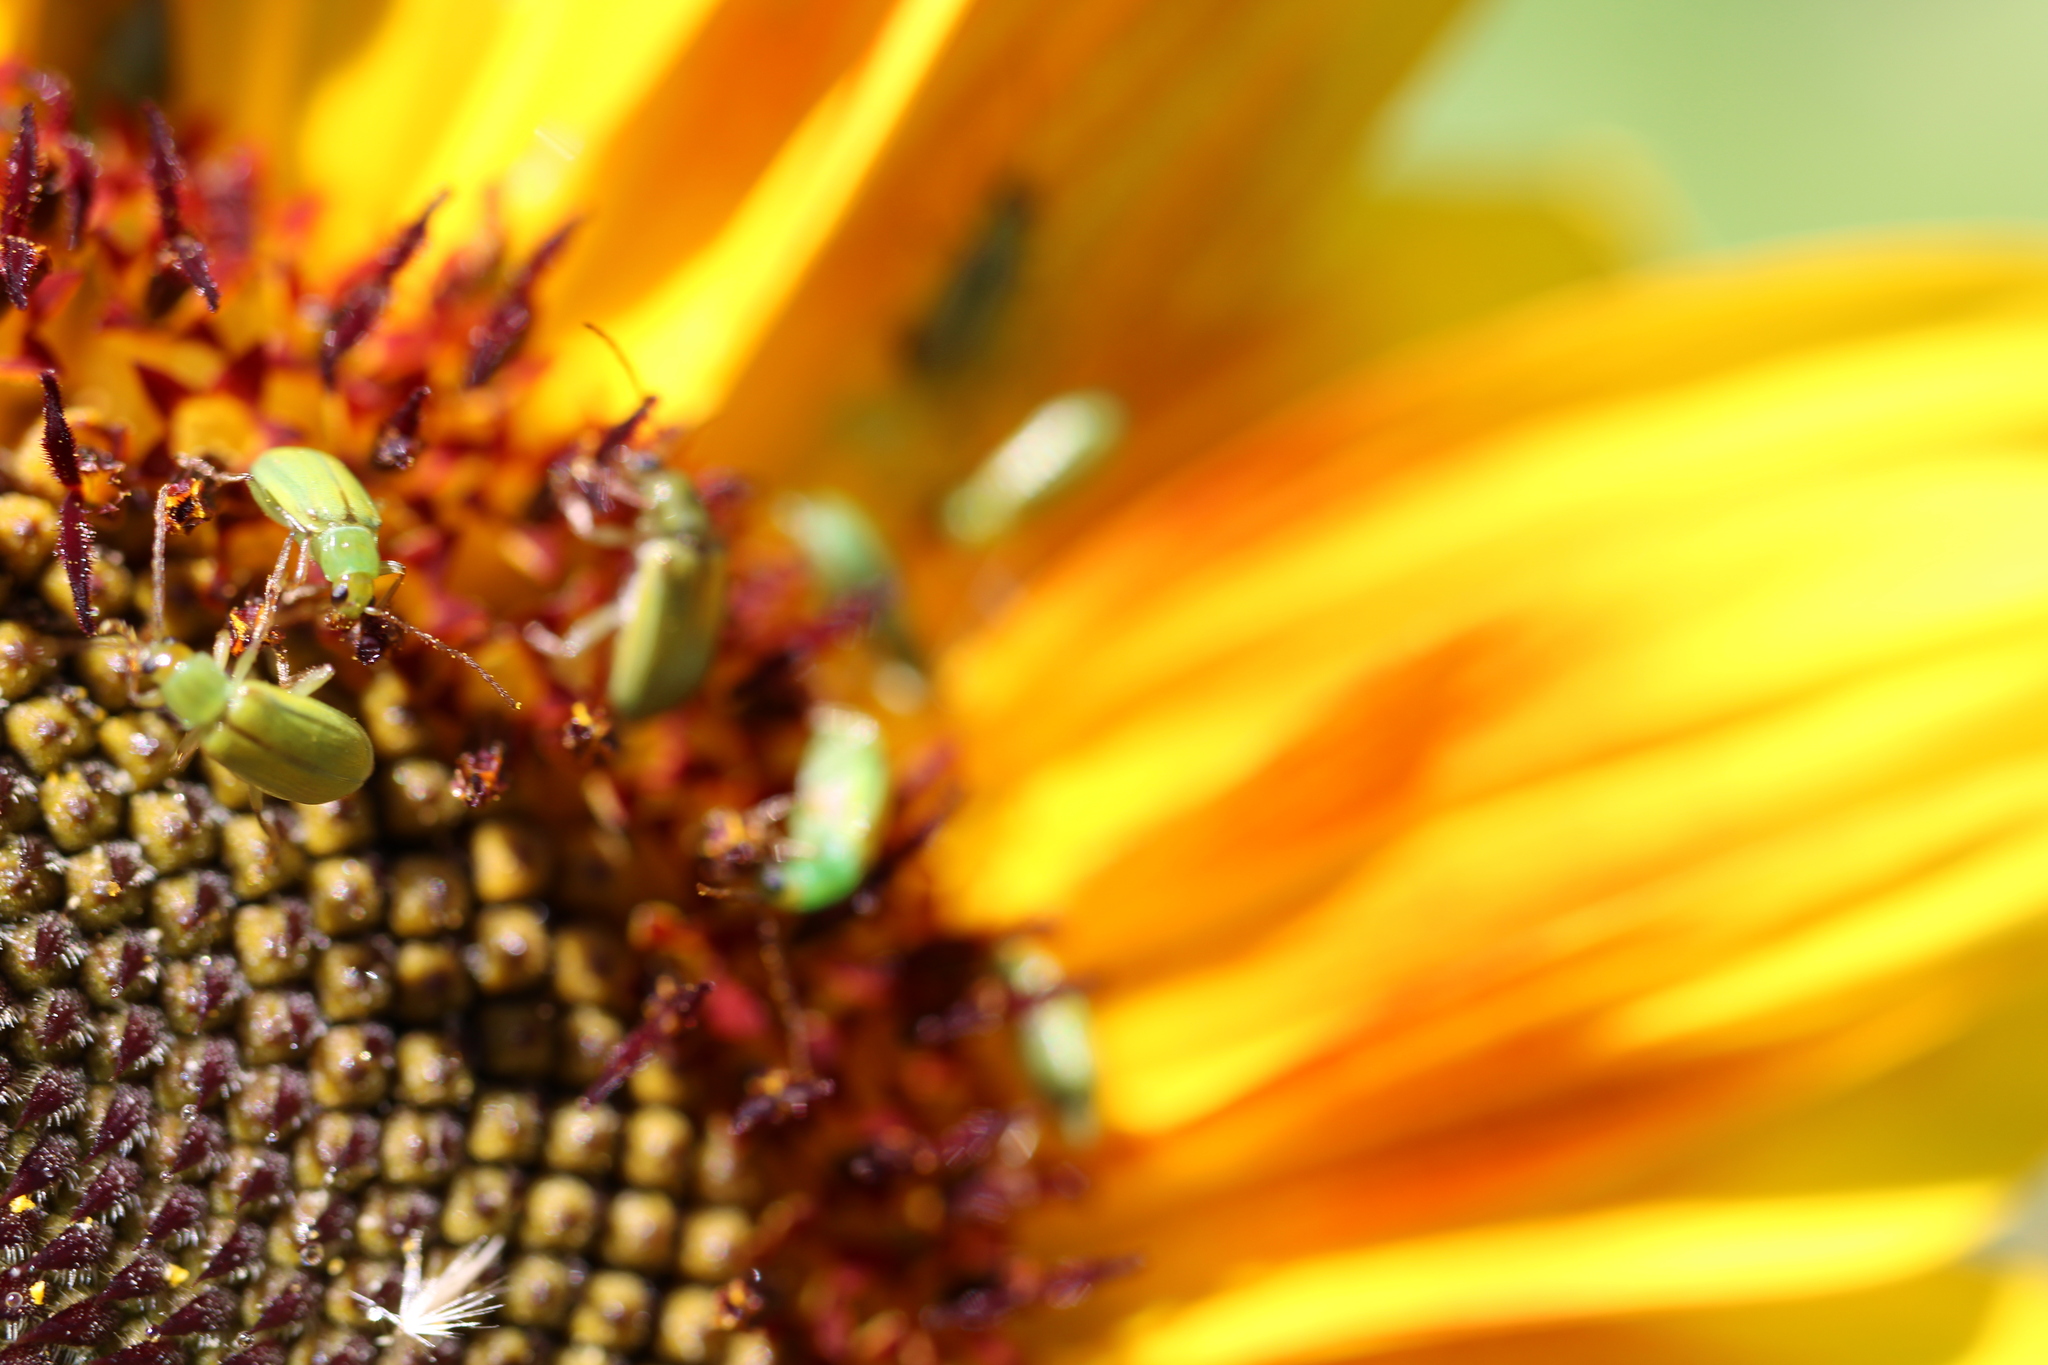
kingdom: Animalia
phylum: Arthropoda
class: Insecta
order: Coleoptera
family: Chrysomelidae
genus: Diabrotica
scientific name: Diabrotica barberi
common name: Northern corn rootworm
